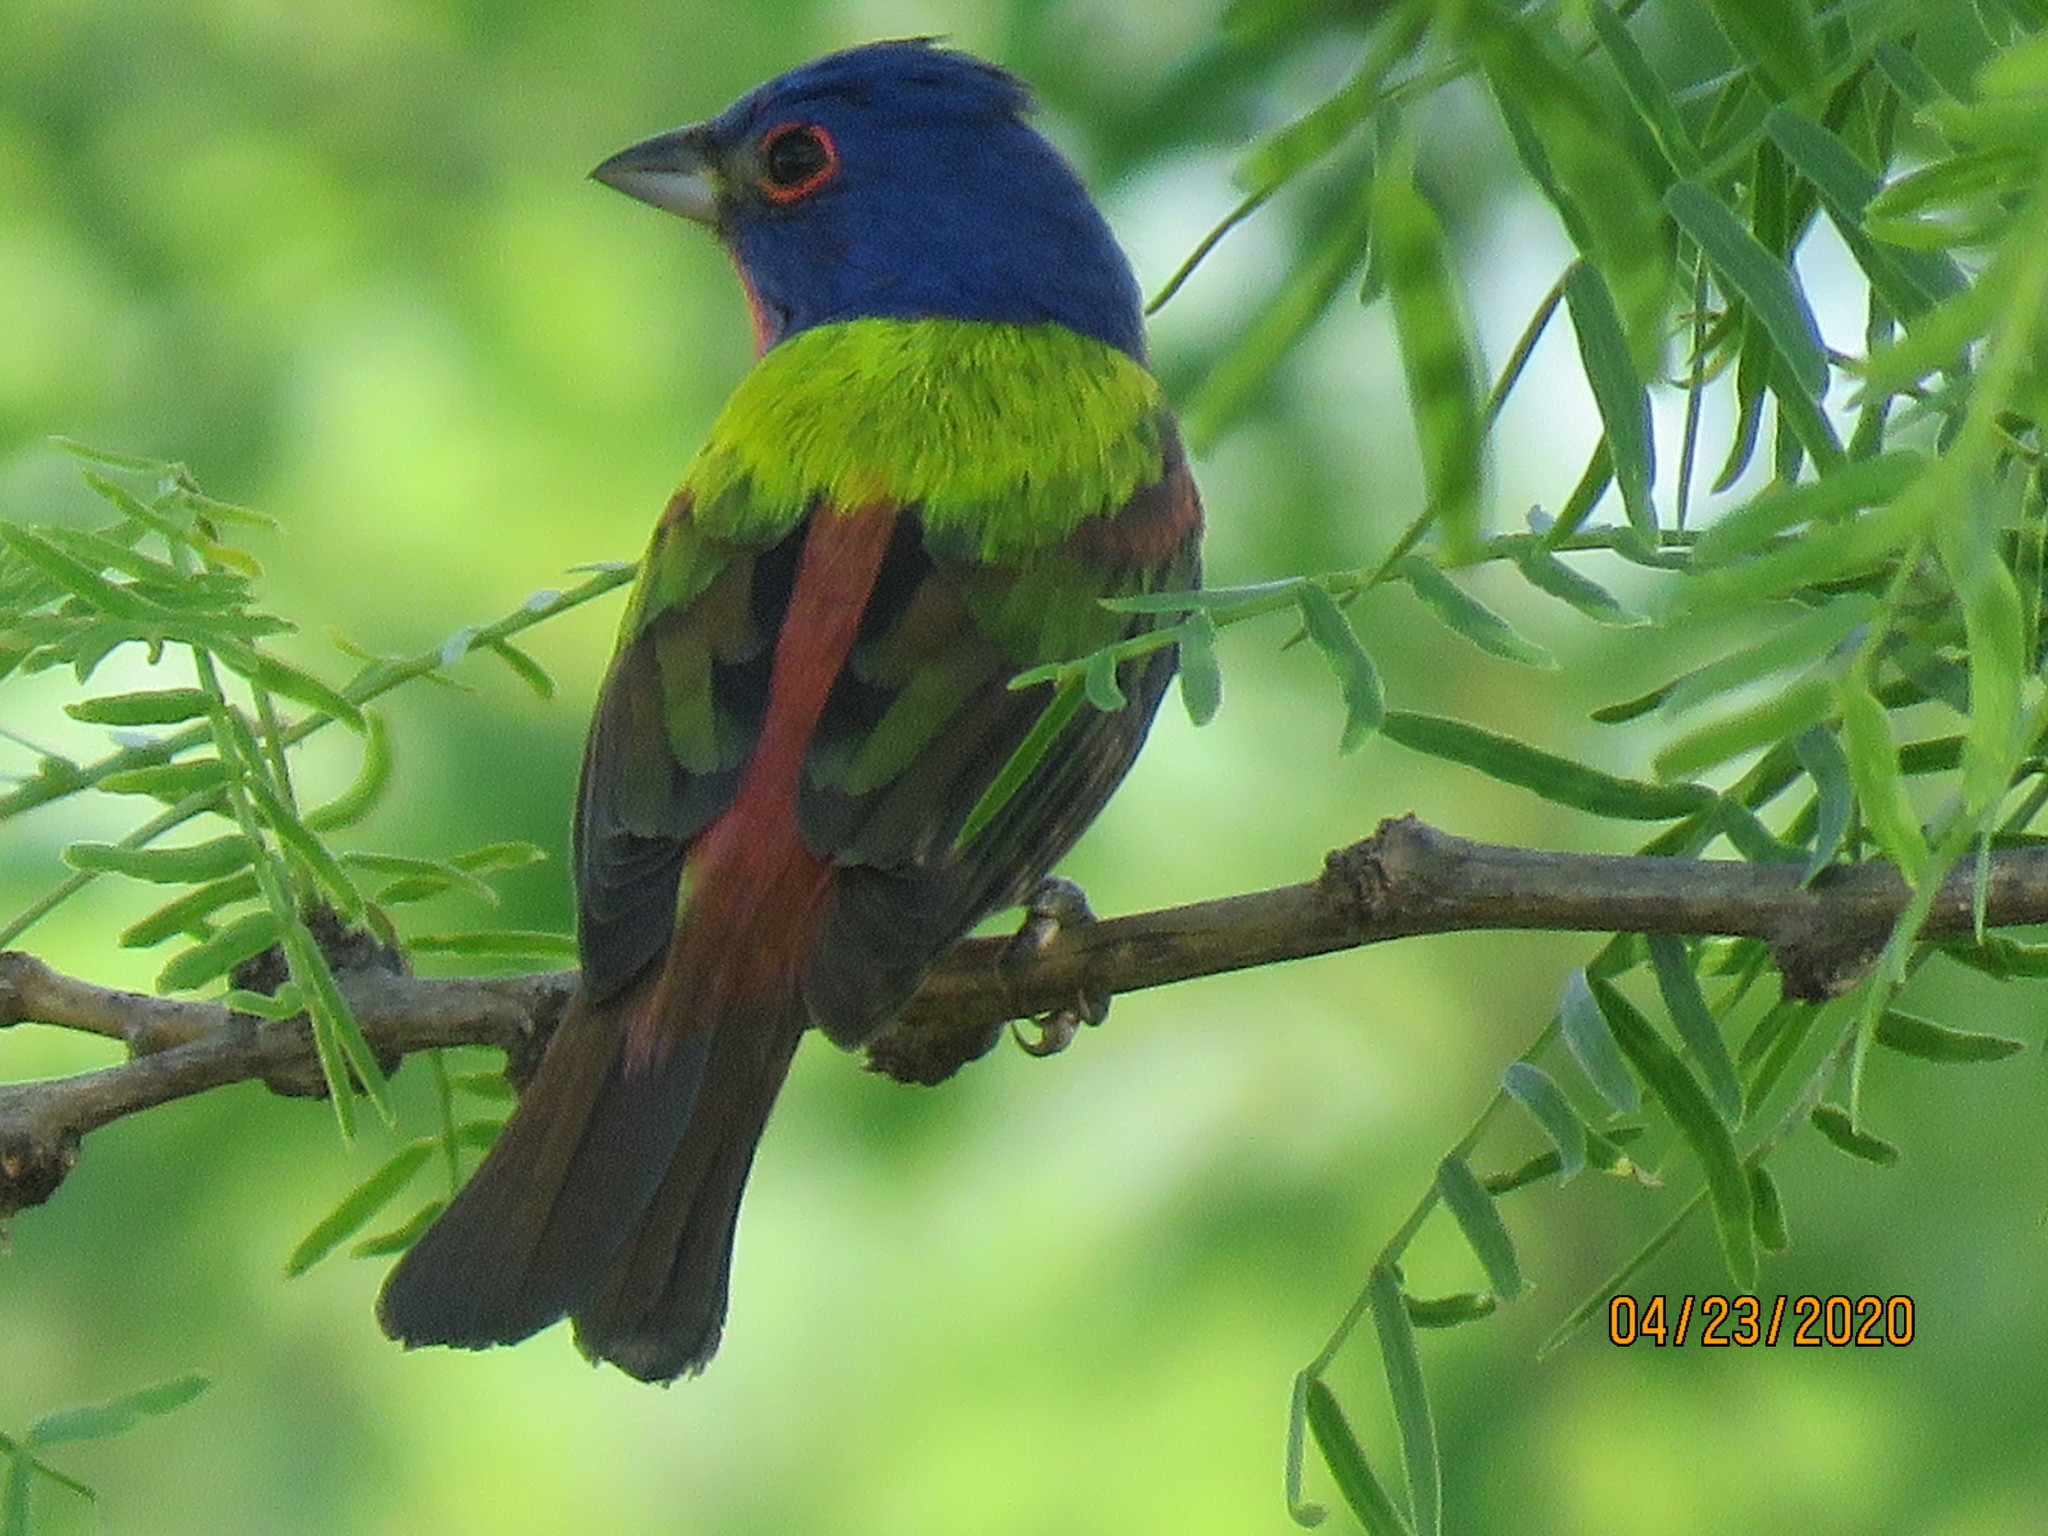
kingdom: Animalia
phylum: Chordata
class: Aves
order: Passeriformes
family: Cardinalidae
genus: Passerina
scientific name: Passerina ciris
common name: Painted bunting
